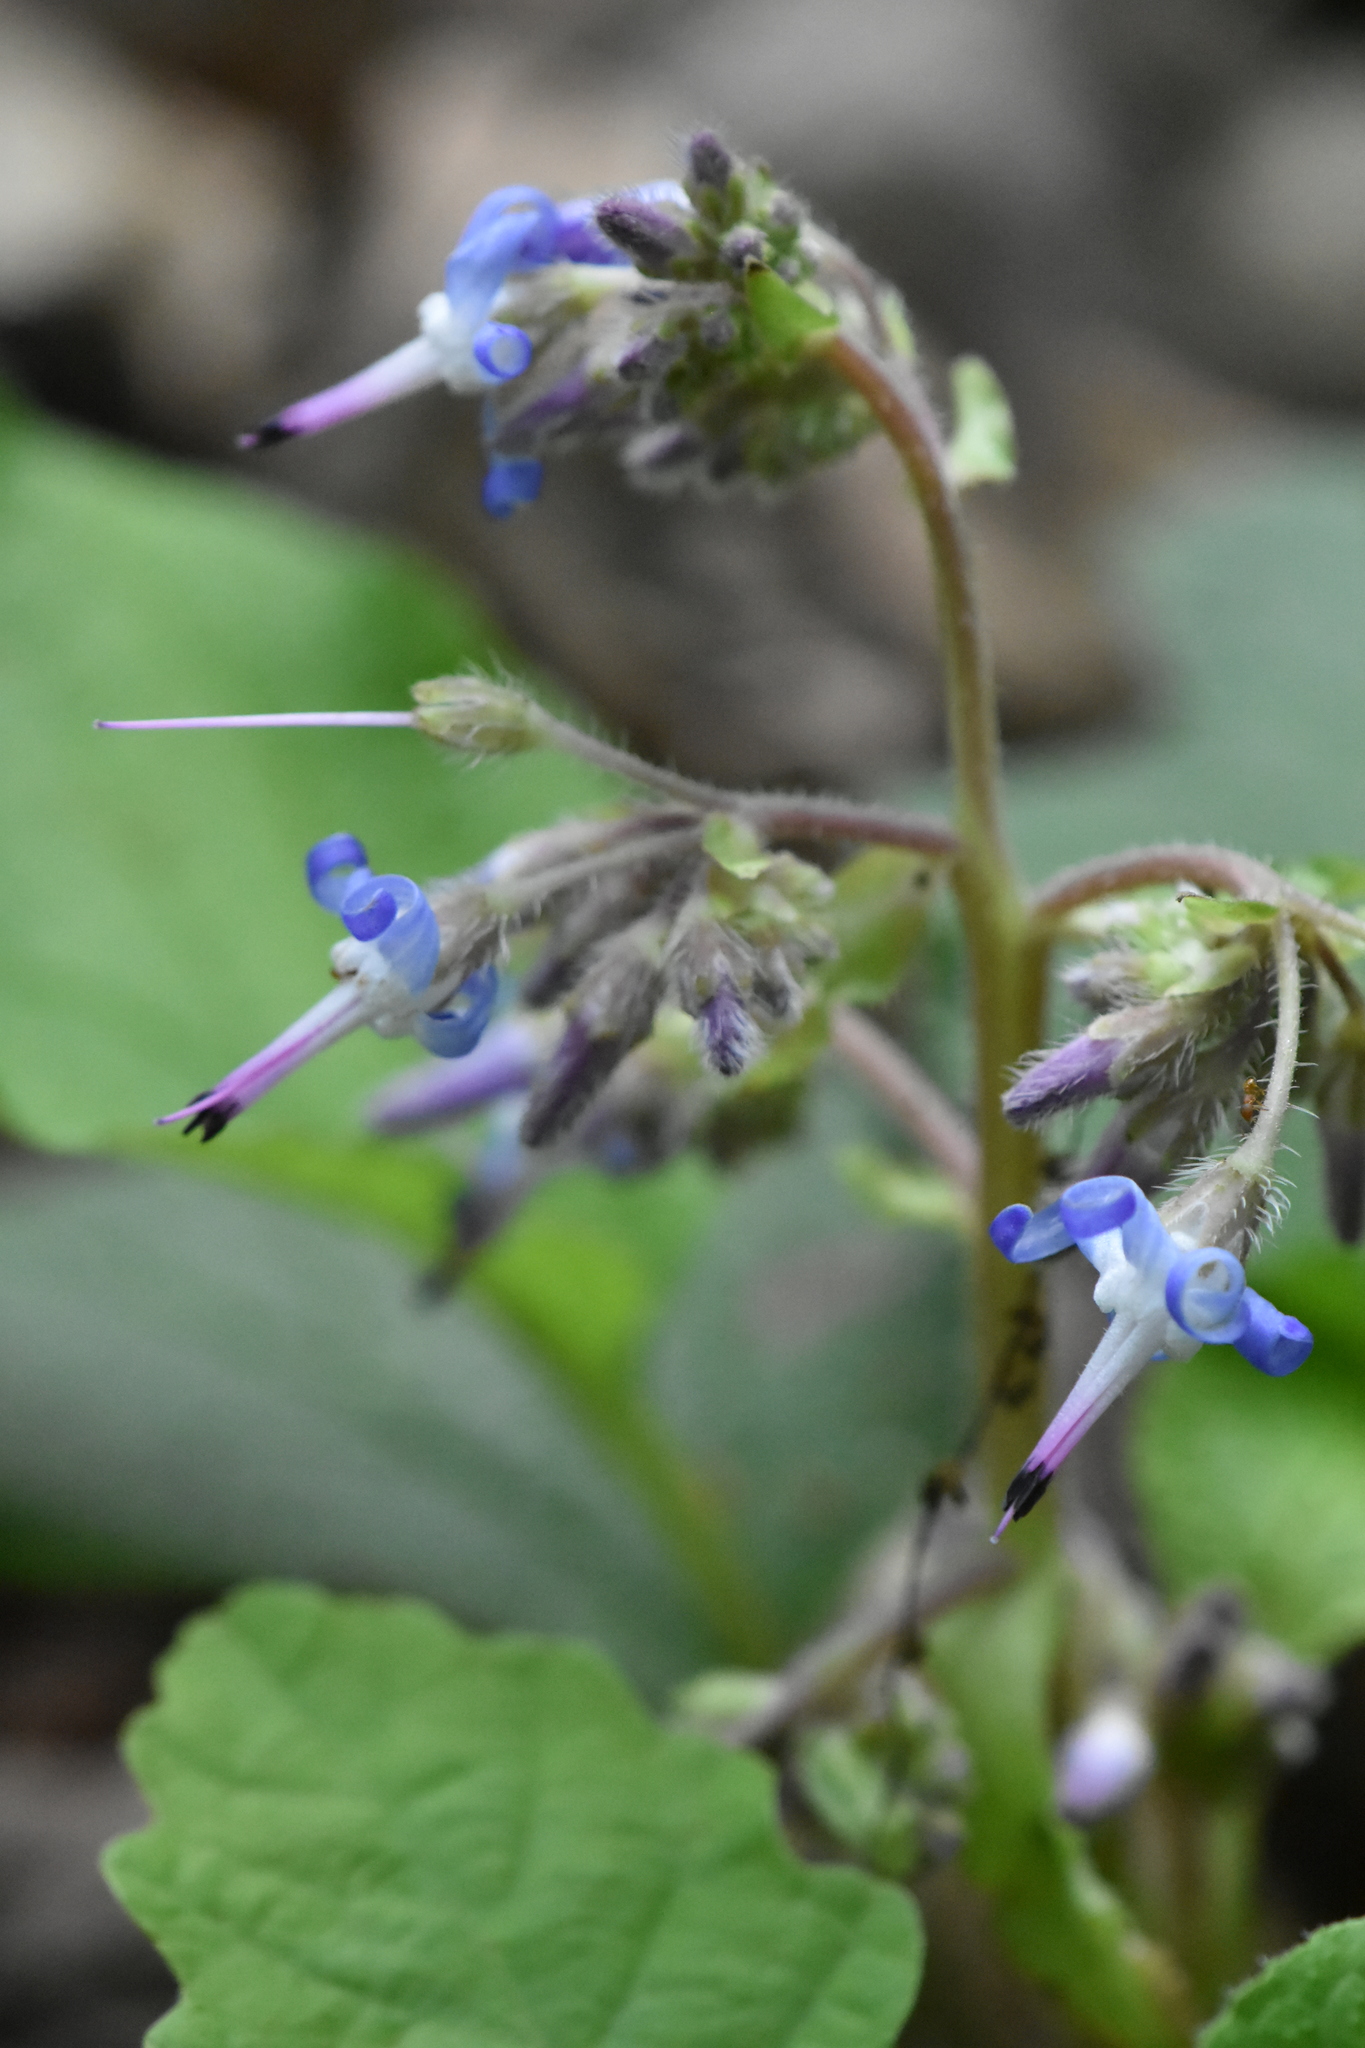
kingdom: Plantae
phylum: Tracheophyta
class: Magnoliopsida
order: Boraginales
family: Boraginaceae
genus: Trachystemon
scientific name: Trachystemon orientale
